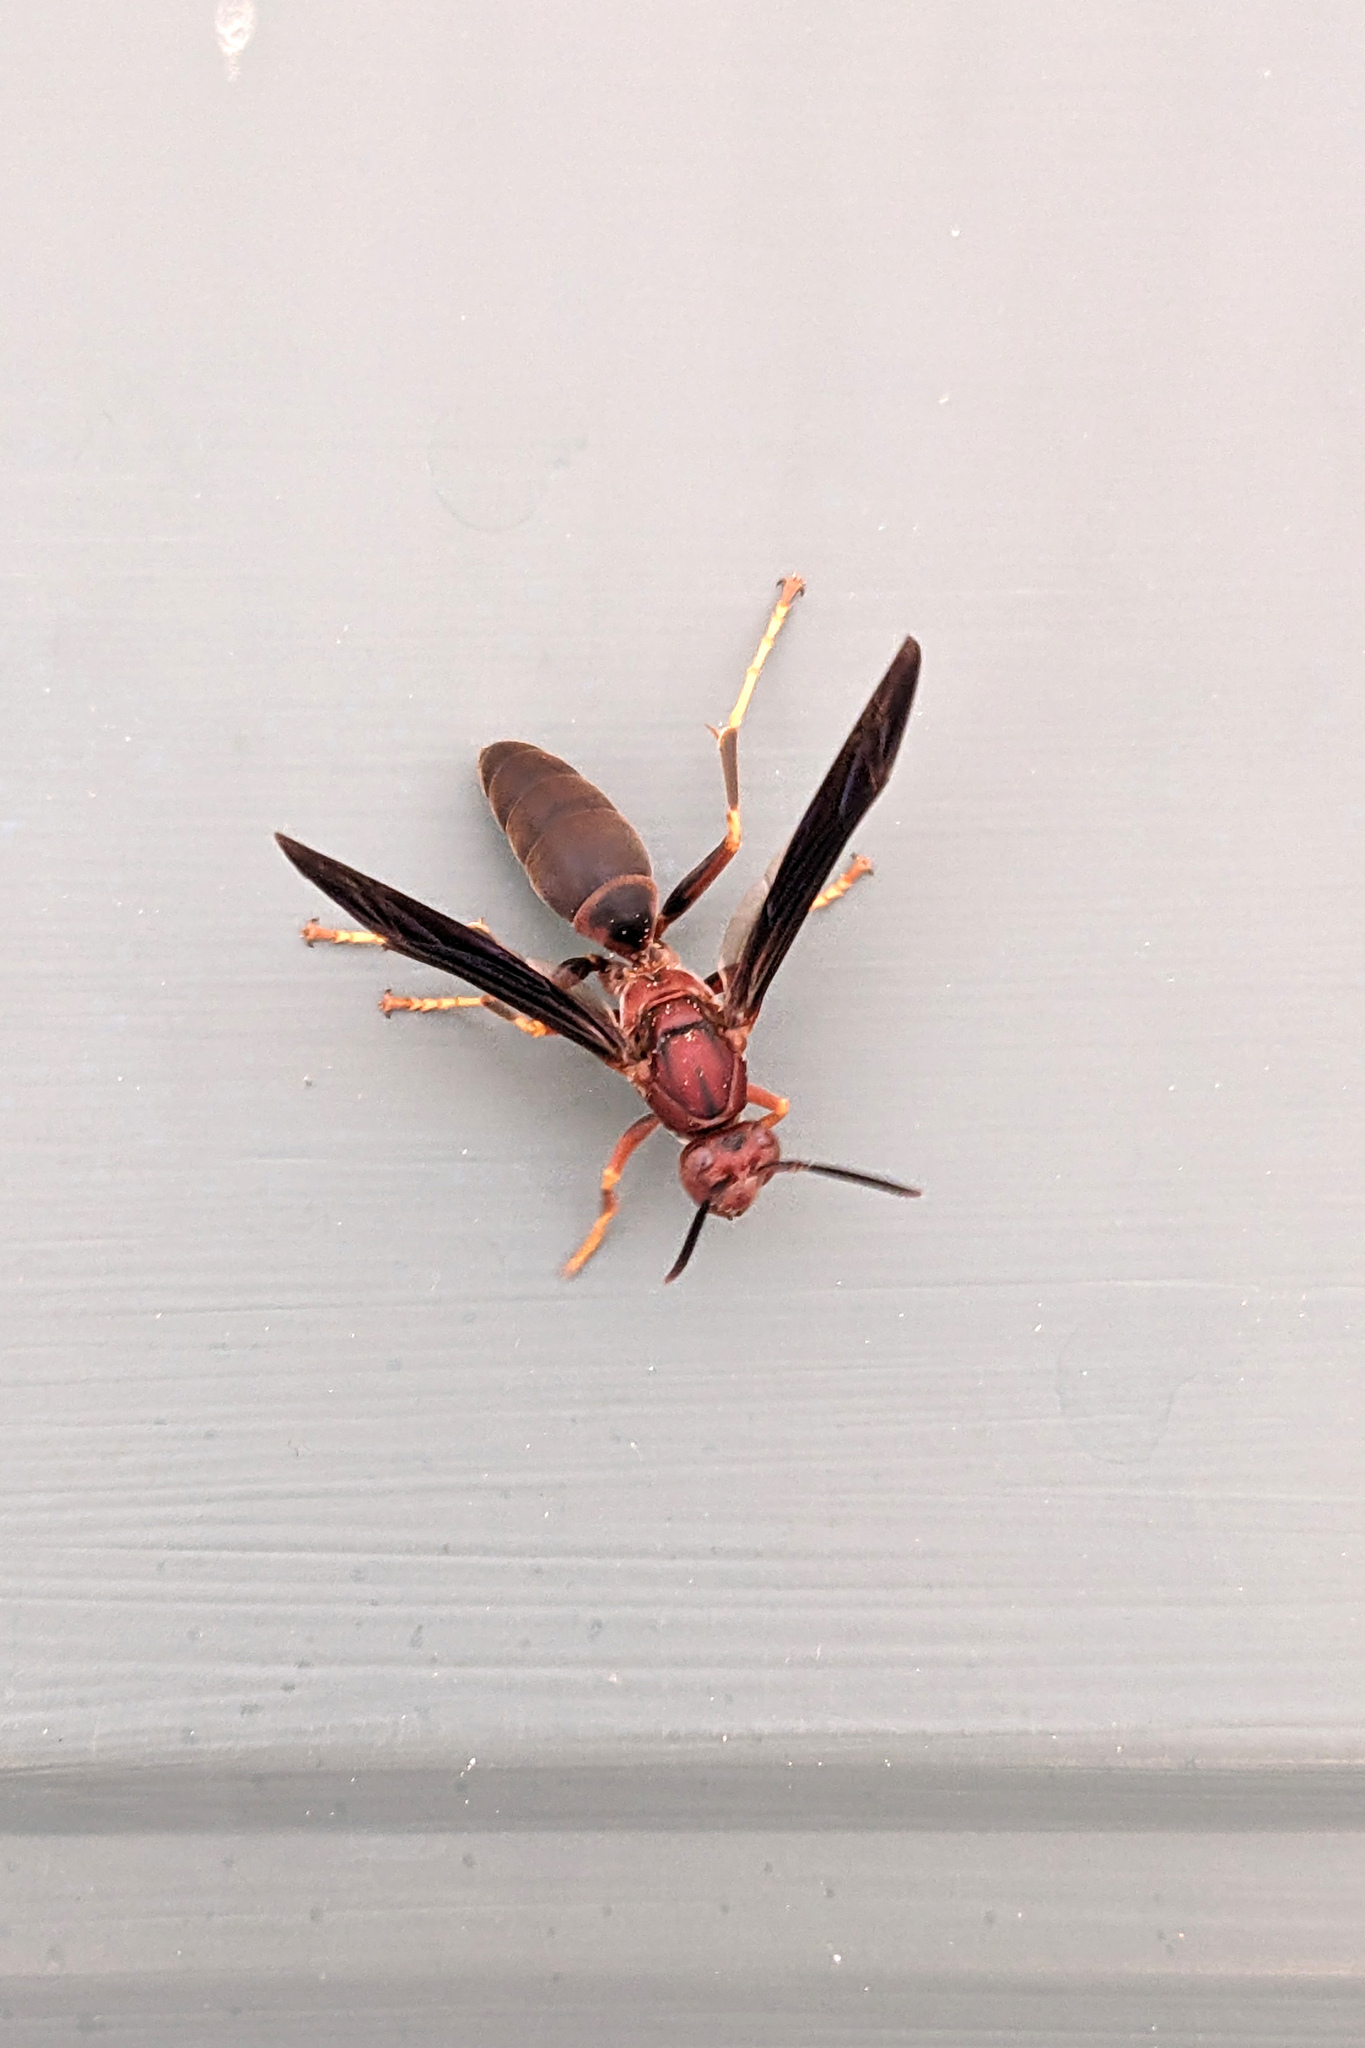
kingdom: Animalia
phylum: Arthropoda
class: Insecta
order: Hymenoptera
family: Eumenidae
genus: Polistes
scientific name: Polistes metricus
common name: Metric paper wasp
